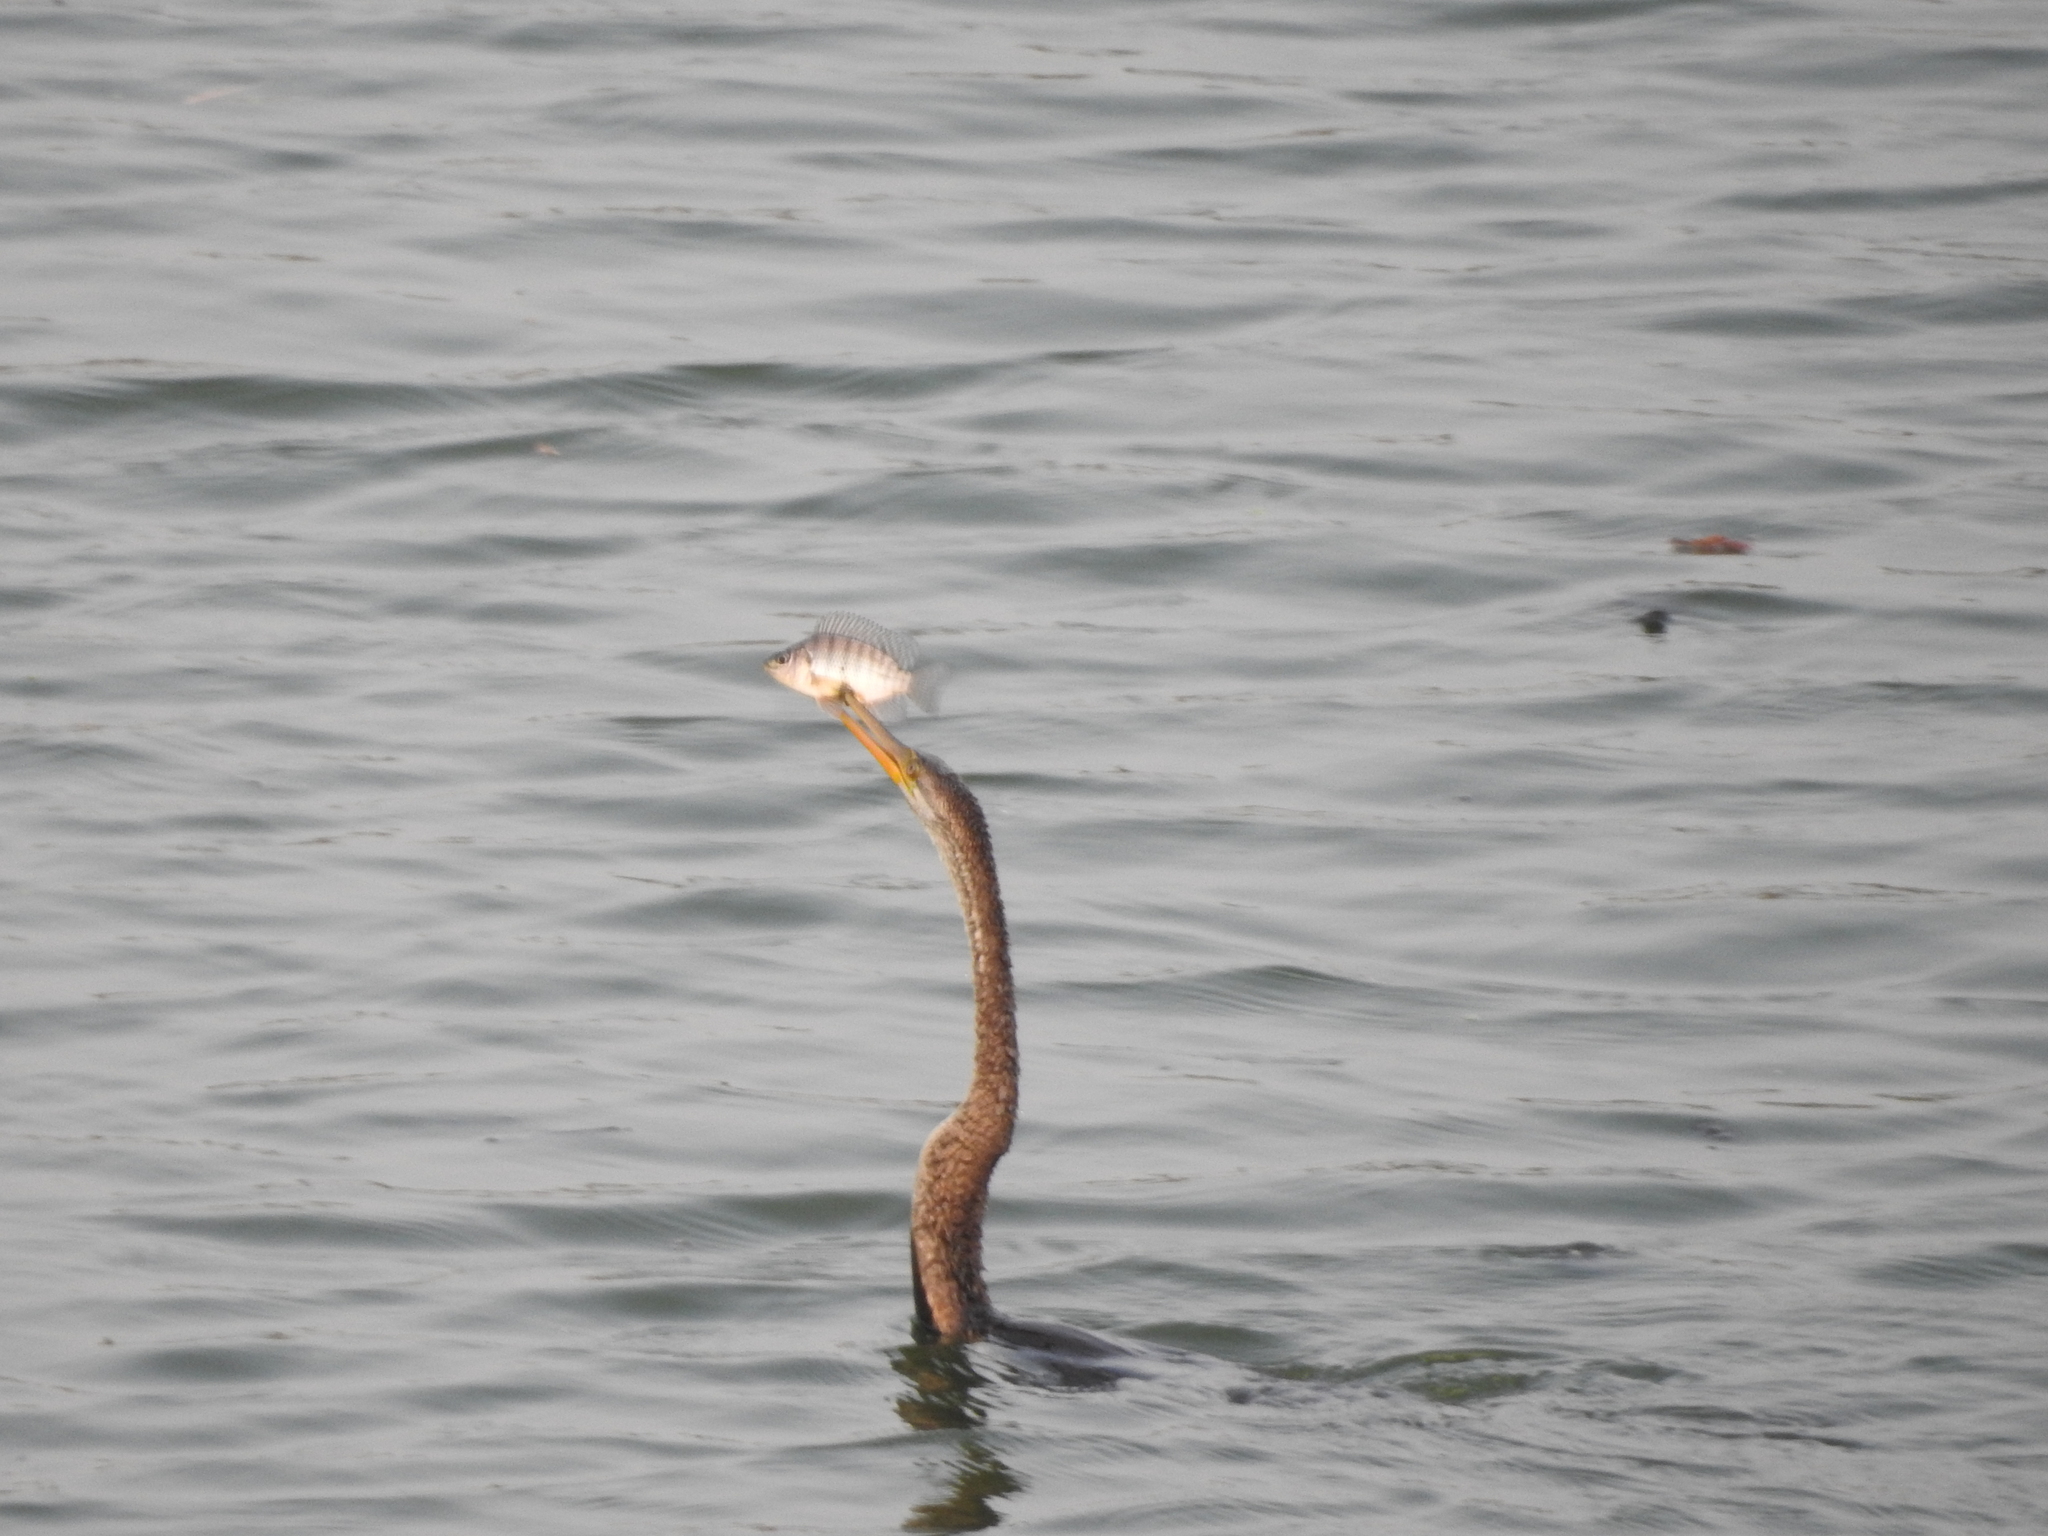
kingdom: Animalia
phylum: Chordata
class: Aves
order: Suliformes
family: Anhingidae
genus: Anhinga
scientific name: Anhinga melanogaster
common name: Oriental darter
